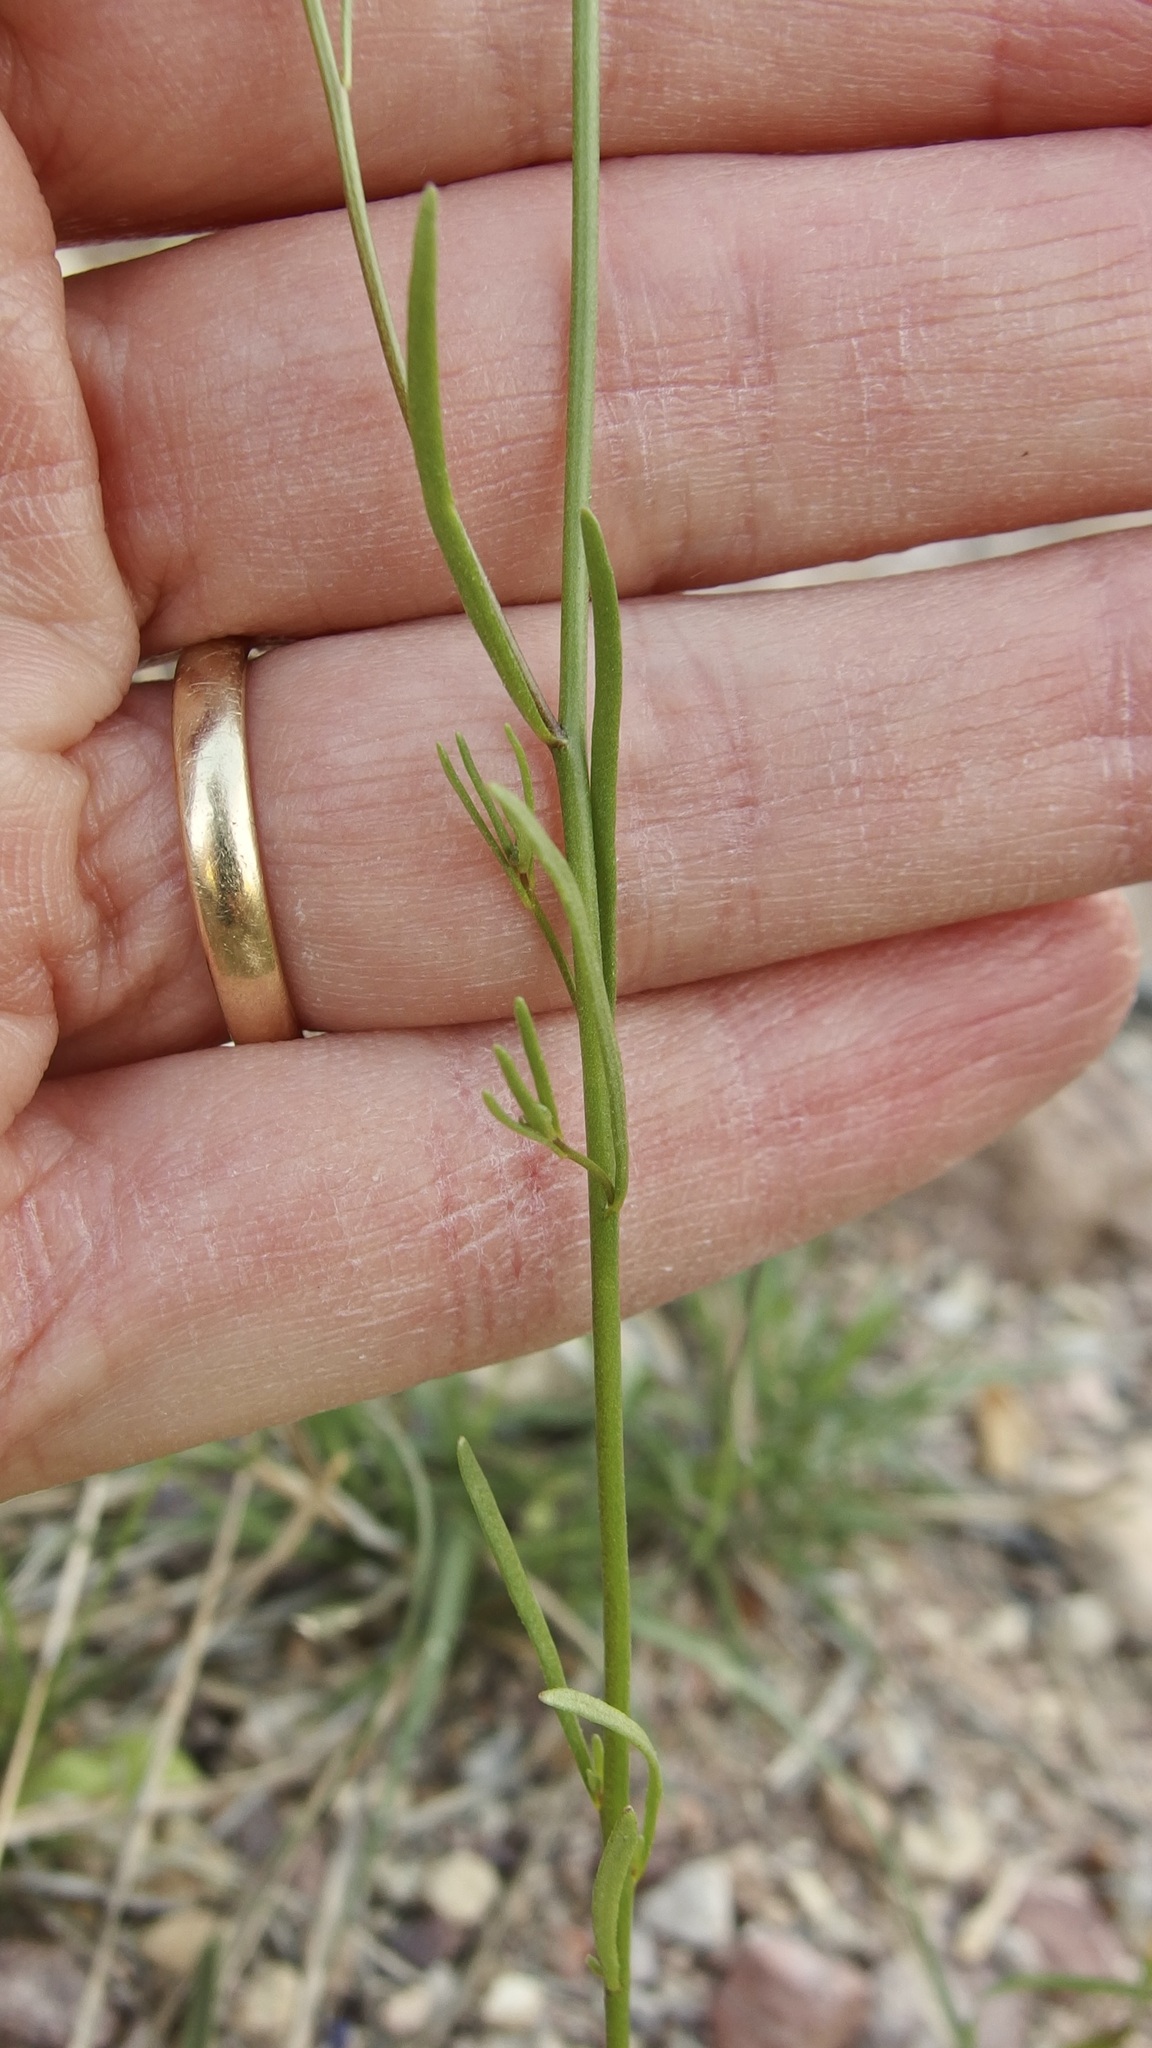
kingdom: Plantae
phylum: Tracheophyta
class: Magnoliopsida
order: Lamiales
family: Plantaginaceae
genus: Nuttallanthus
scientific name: Nuttallanthus texanus
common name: Texas toadflax
